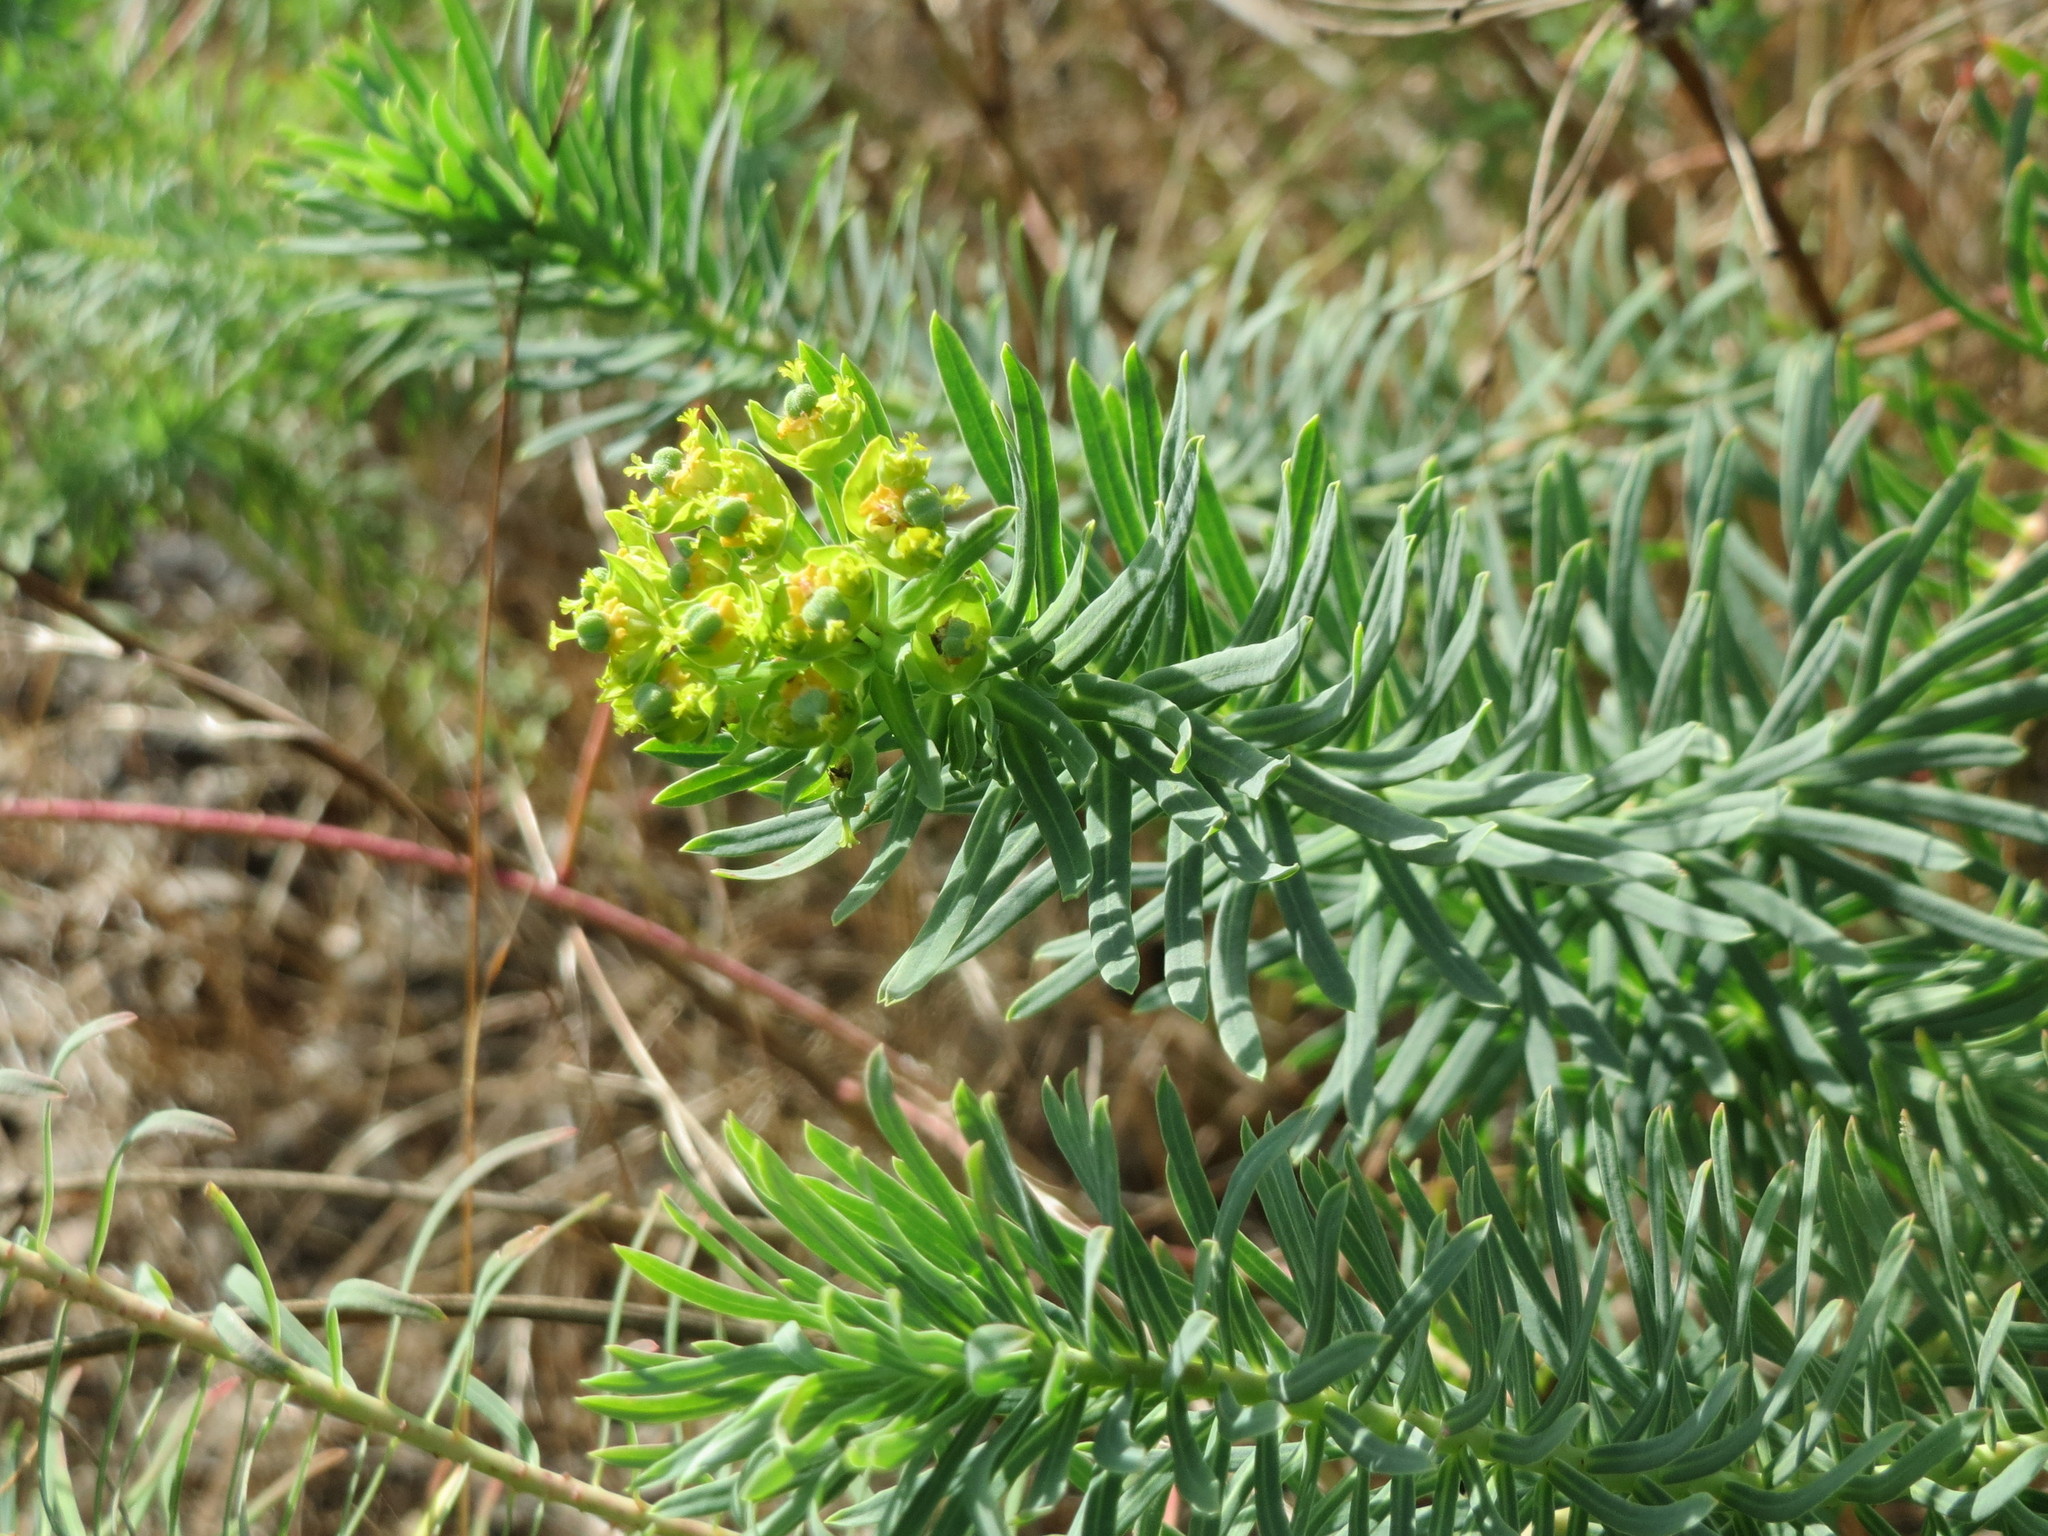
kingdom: Plantae
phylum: Tracheophyta
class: Magnoliopsida
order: Malpighiales
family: Euphorbiaceae
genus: Euphorbia
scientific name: Euphorbia cyparissias
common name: Cypress spurge
